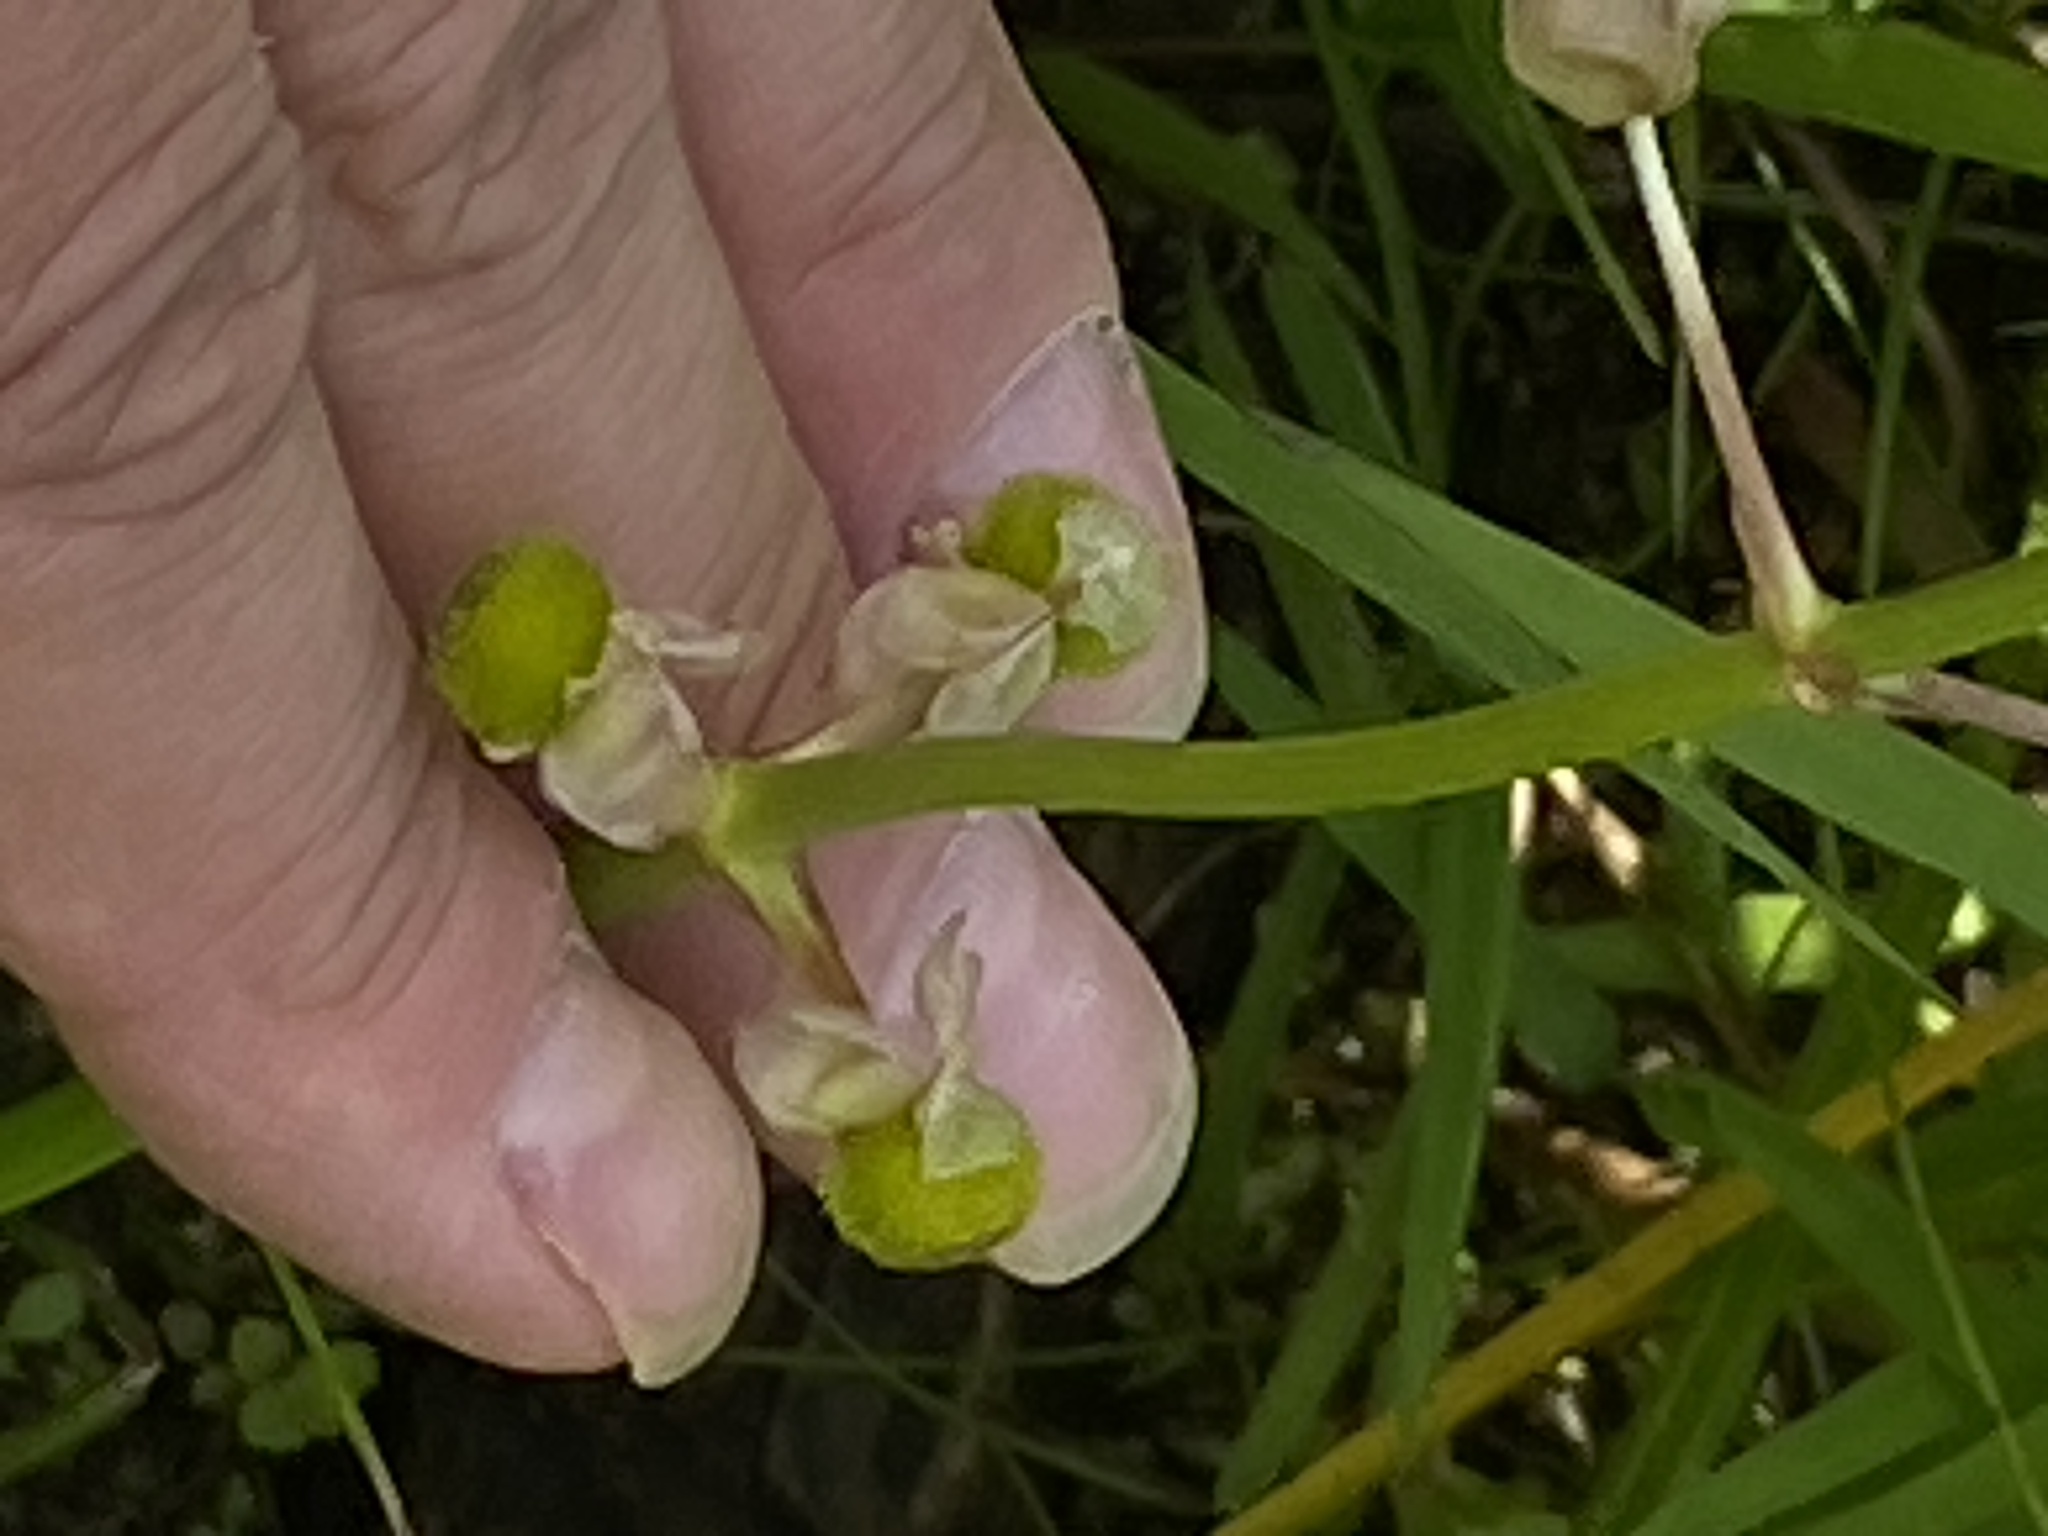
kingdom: Plantae
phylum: Tracheophyta
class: Liliopsida
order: Alismatales
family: Alismataceae
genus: Sagittaria
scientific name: Sagittaria latifolia
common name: Duck-potato
